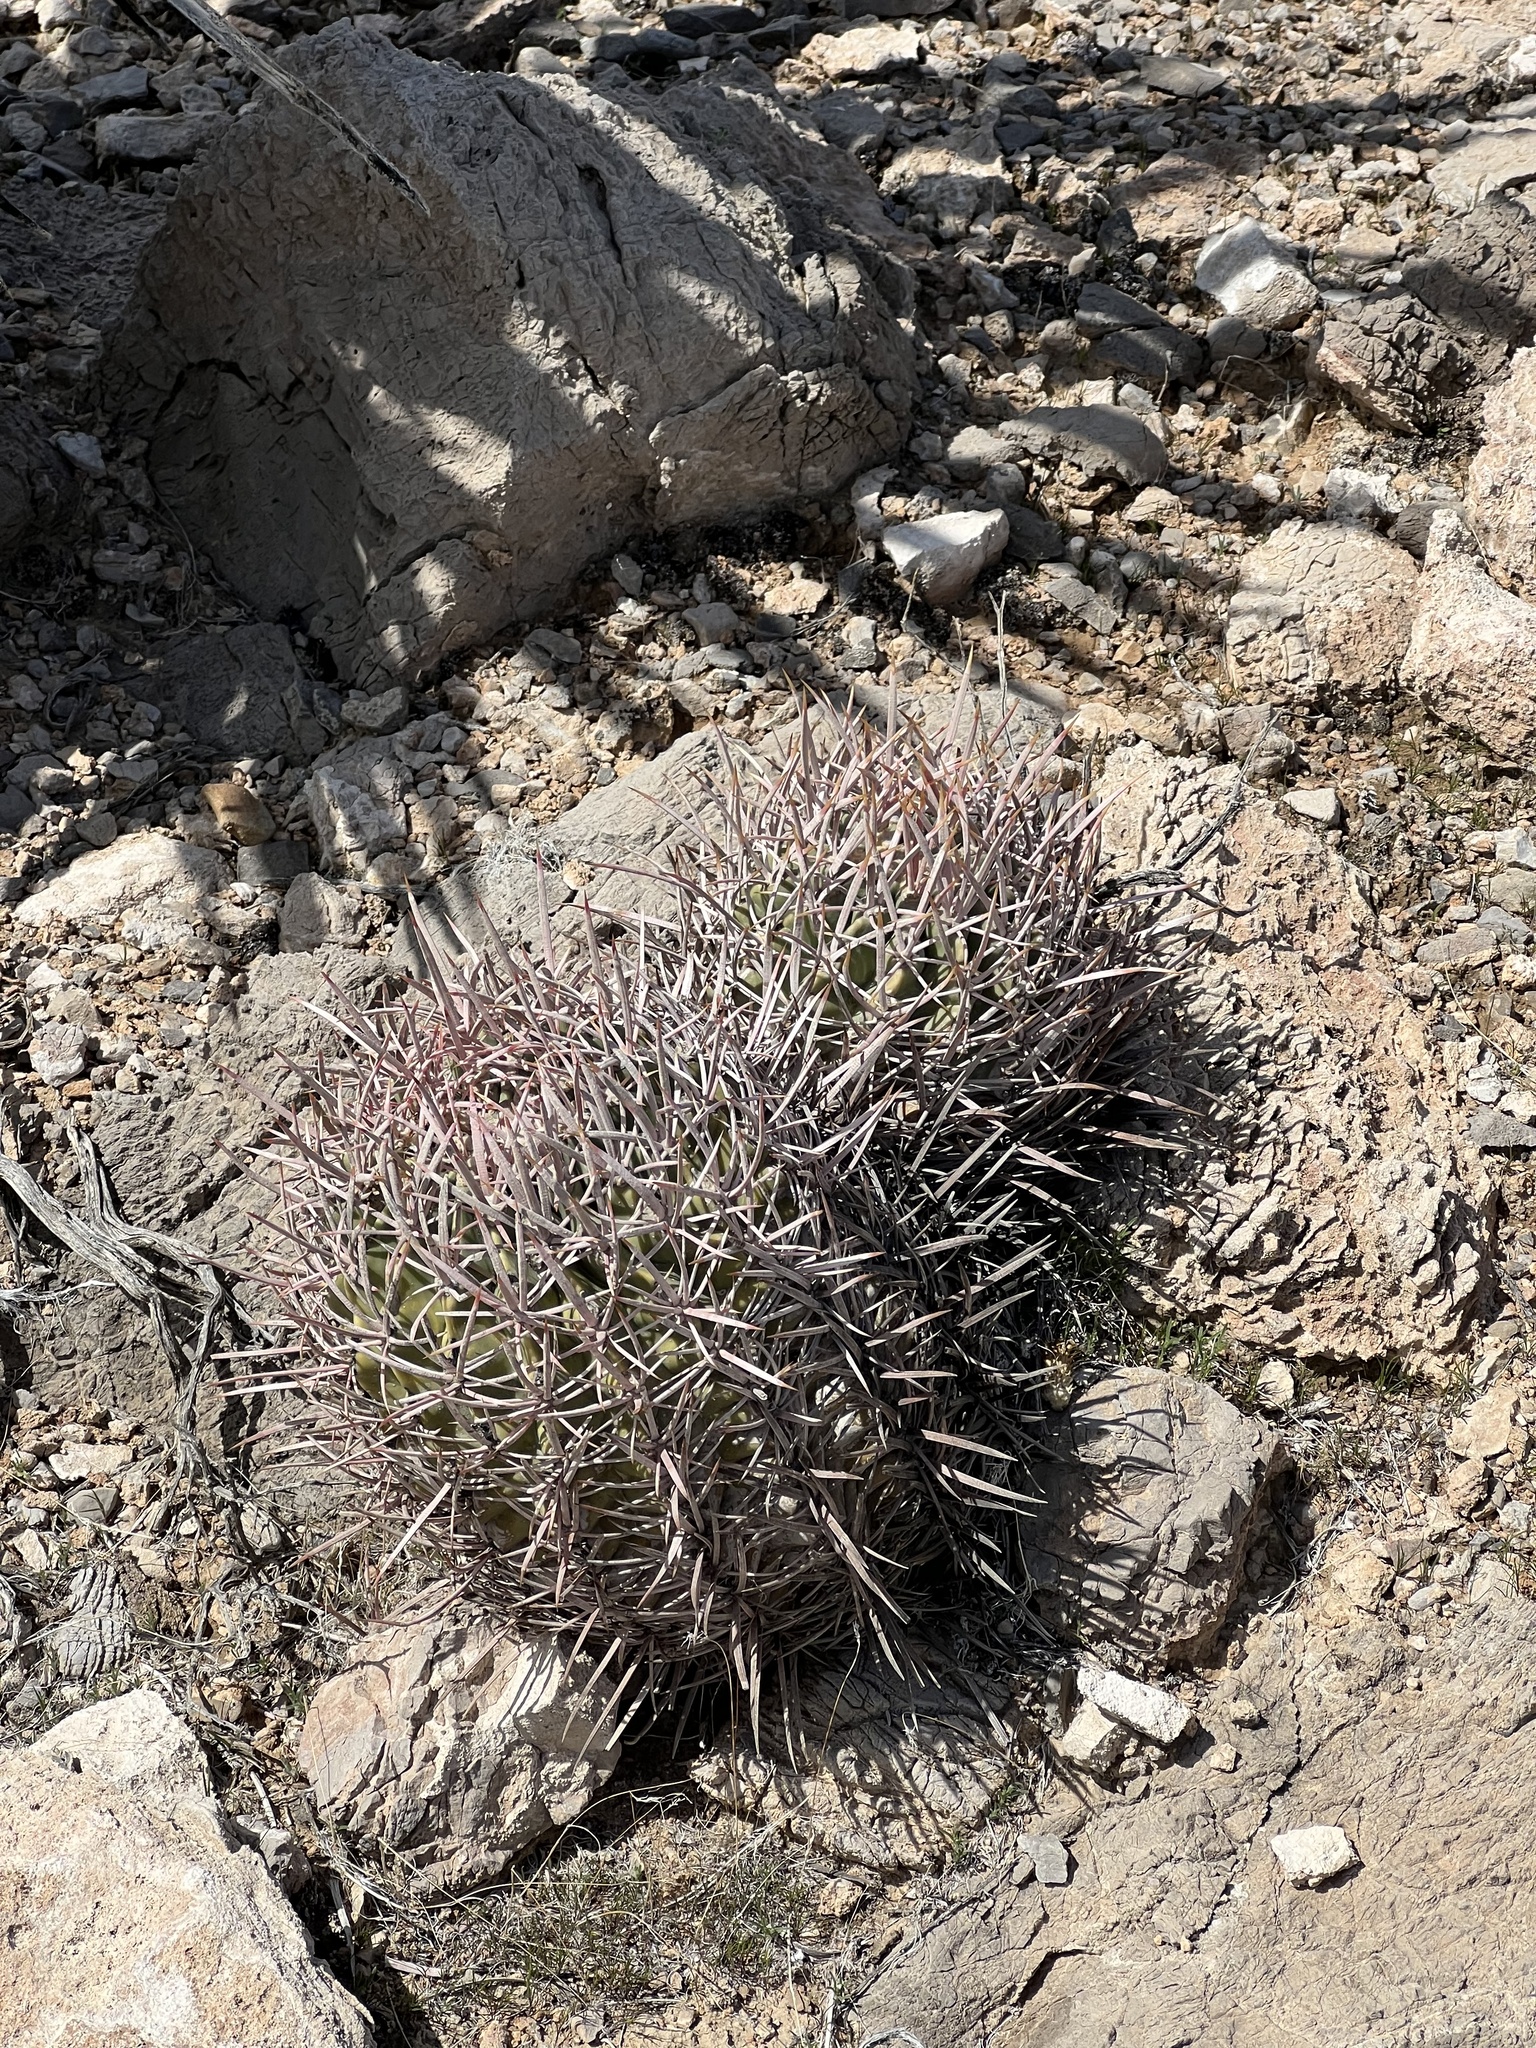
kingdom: Plantae
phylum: Tracheophyta
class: Magnoliopsida
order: Caryophyllales
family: Cactaceae
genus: Echinocactus
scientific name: Echinocactus polycephalus
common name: Cottontop cactus
